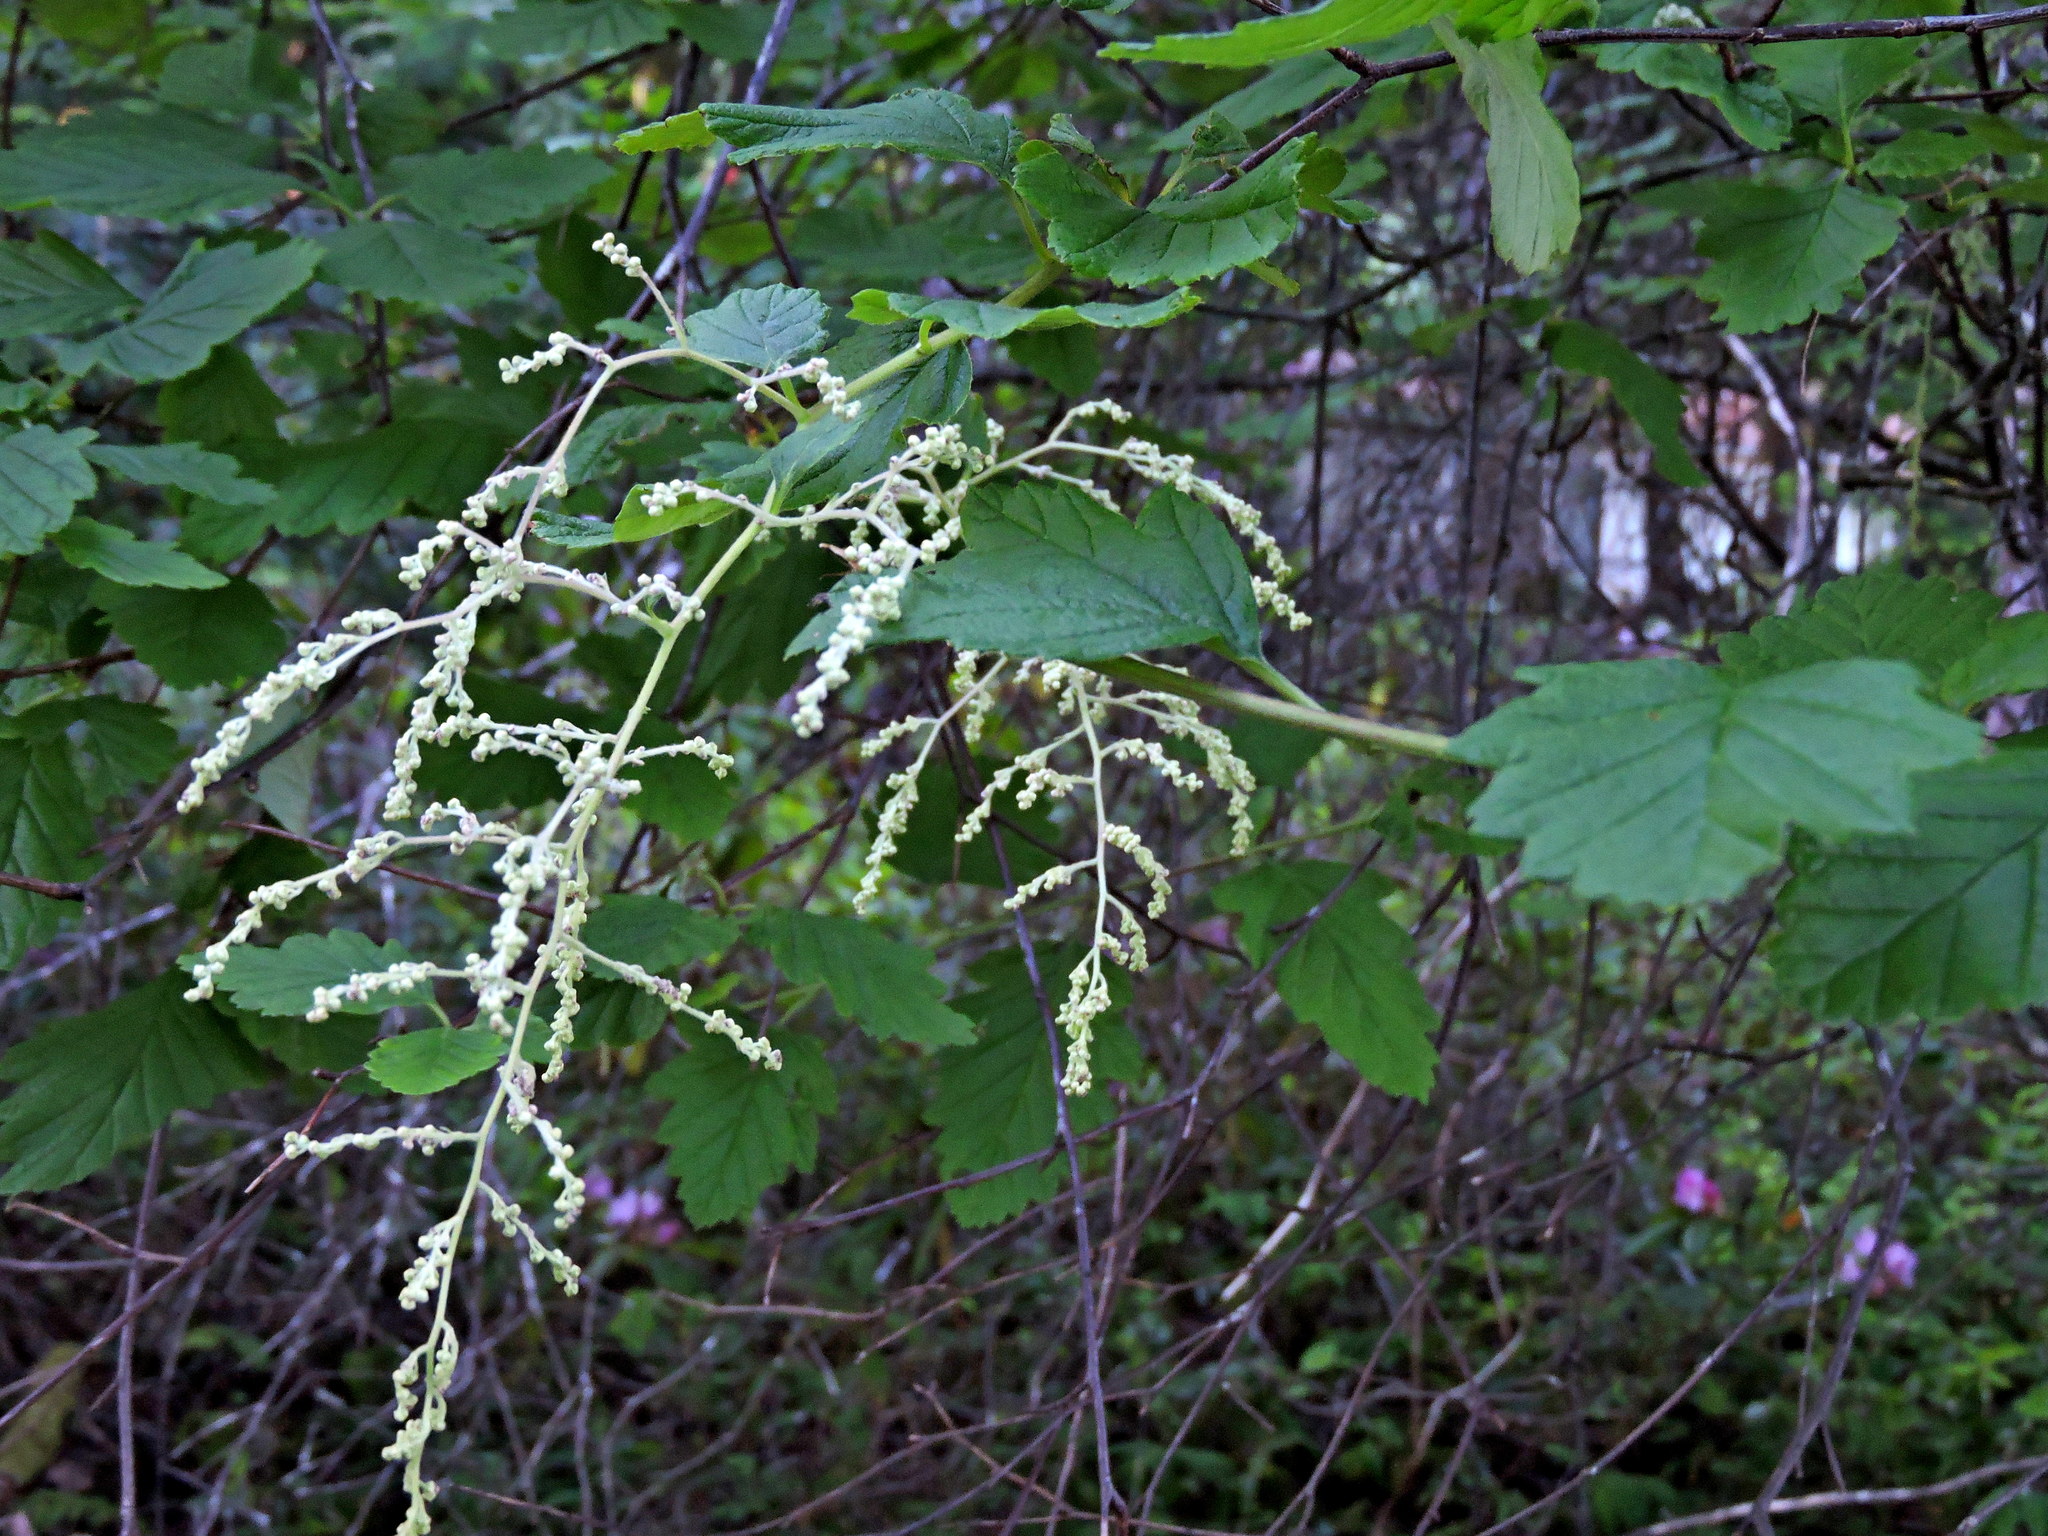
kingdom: Plantae
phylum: Tracheophyta
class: Magnoliopsida
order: Rosales
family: Rosaceae
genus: Holodiscus
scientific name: Holodiscus discolor
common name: Oceanspray
